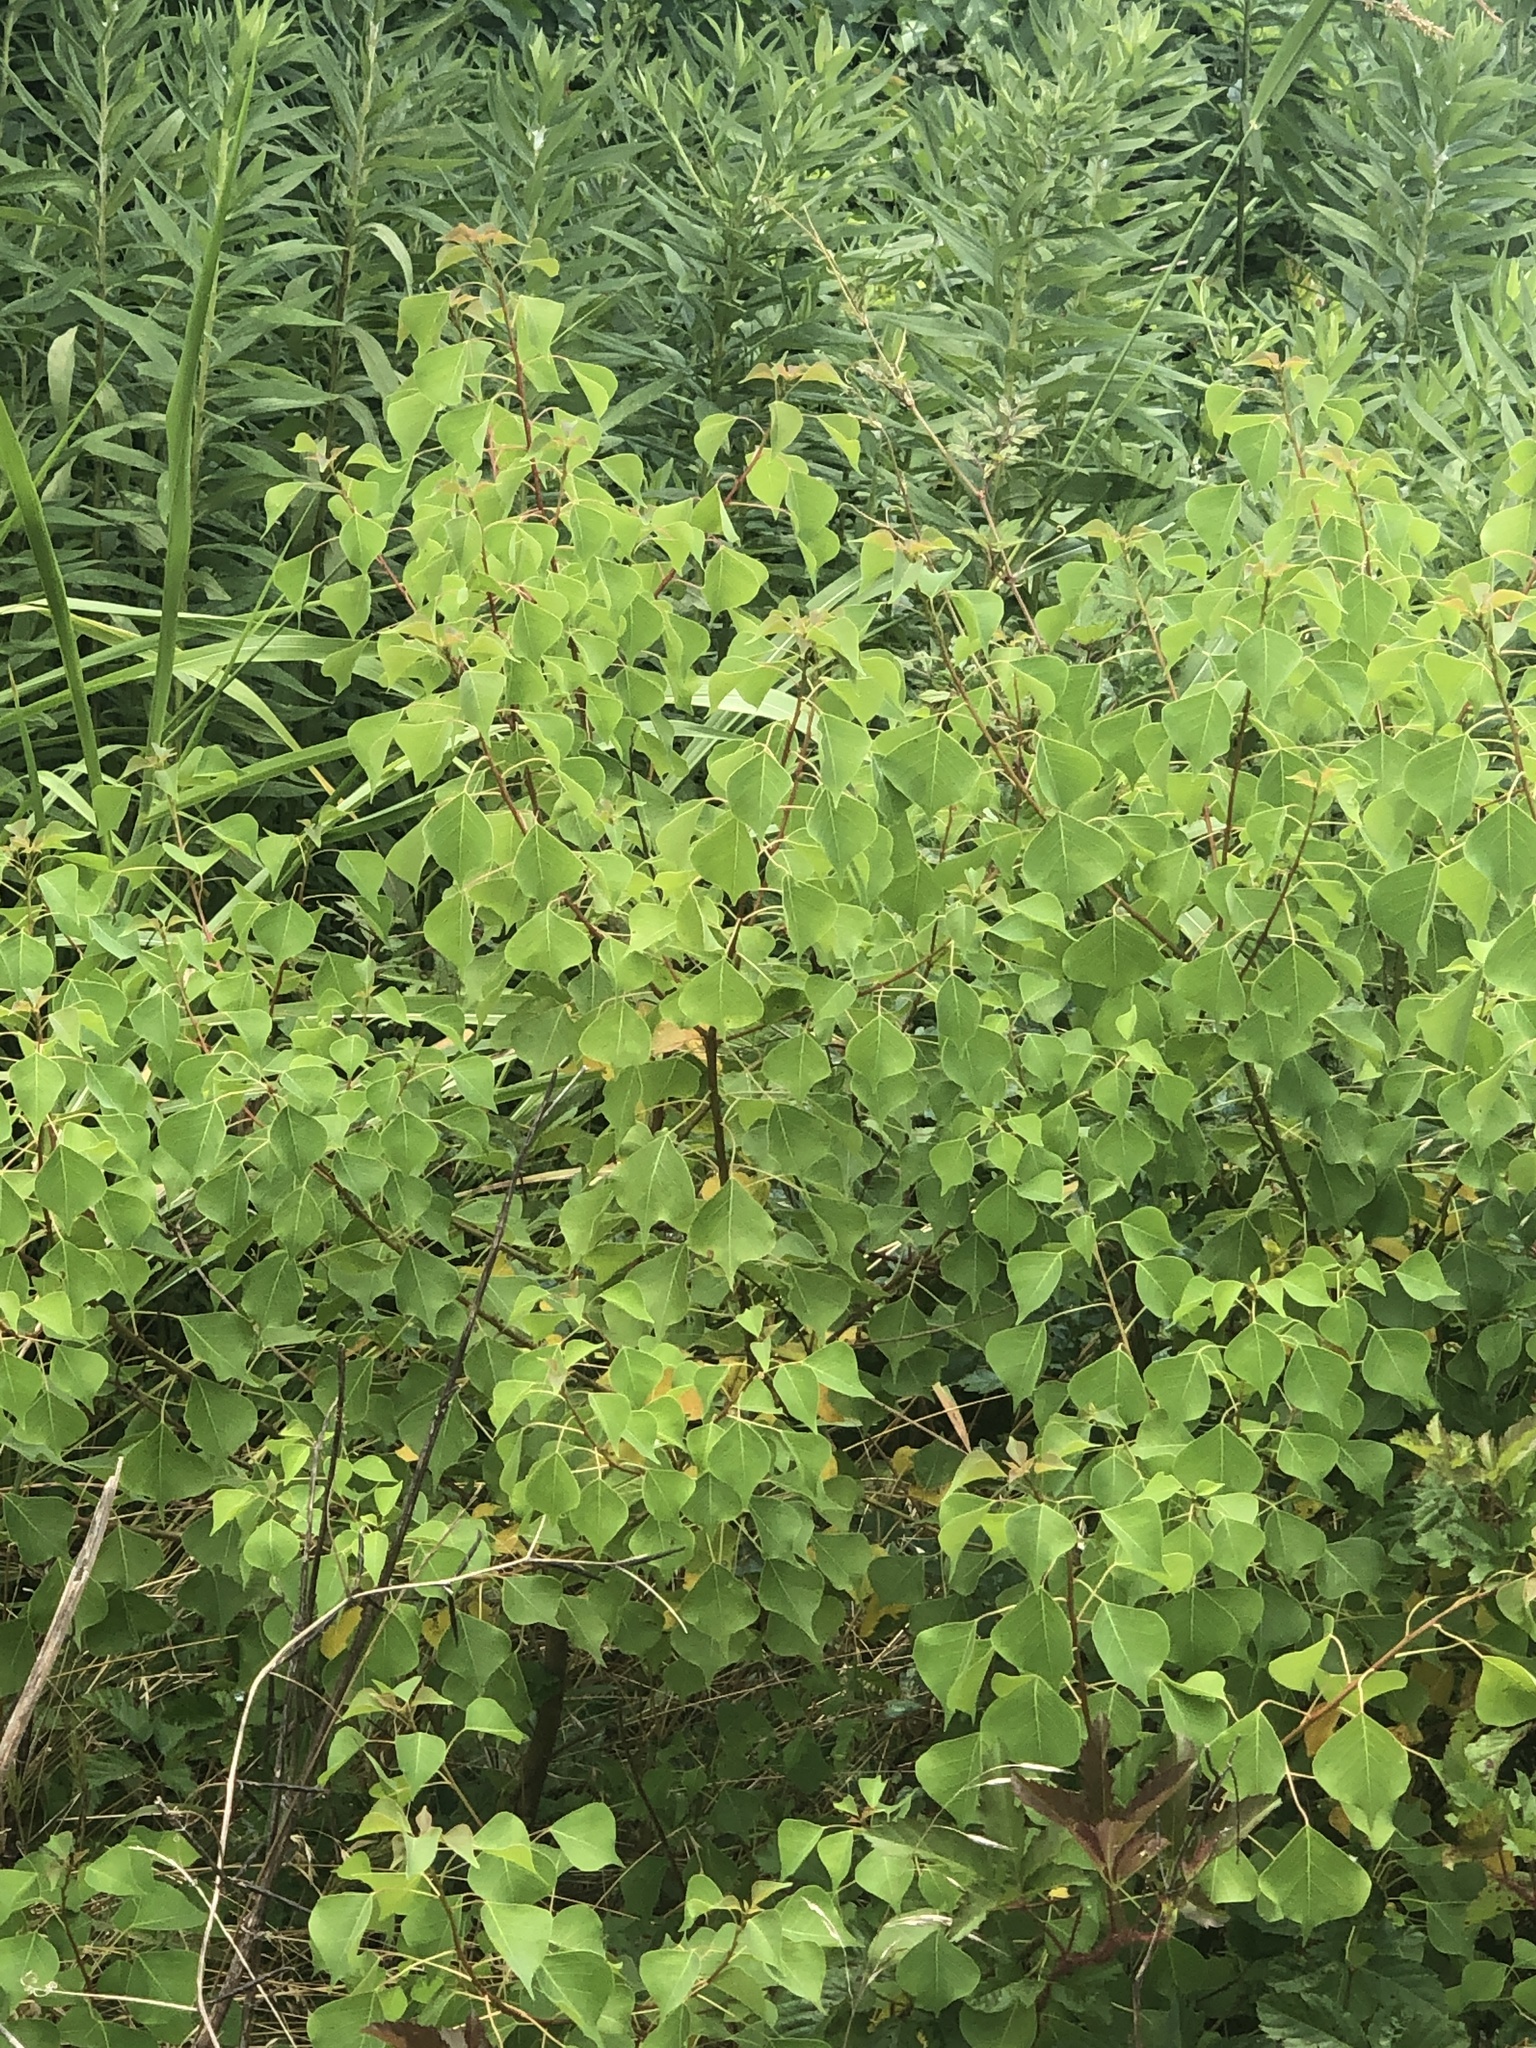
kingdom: Plantae
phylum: Tracheophyta
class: Magnoliopsida
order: Malpighiales
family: Euphorbiaceae
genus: Triadica
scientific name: Triadica sebifera
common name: Chinese tallow
